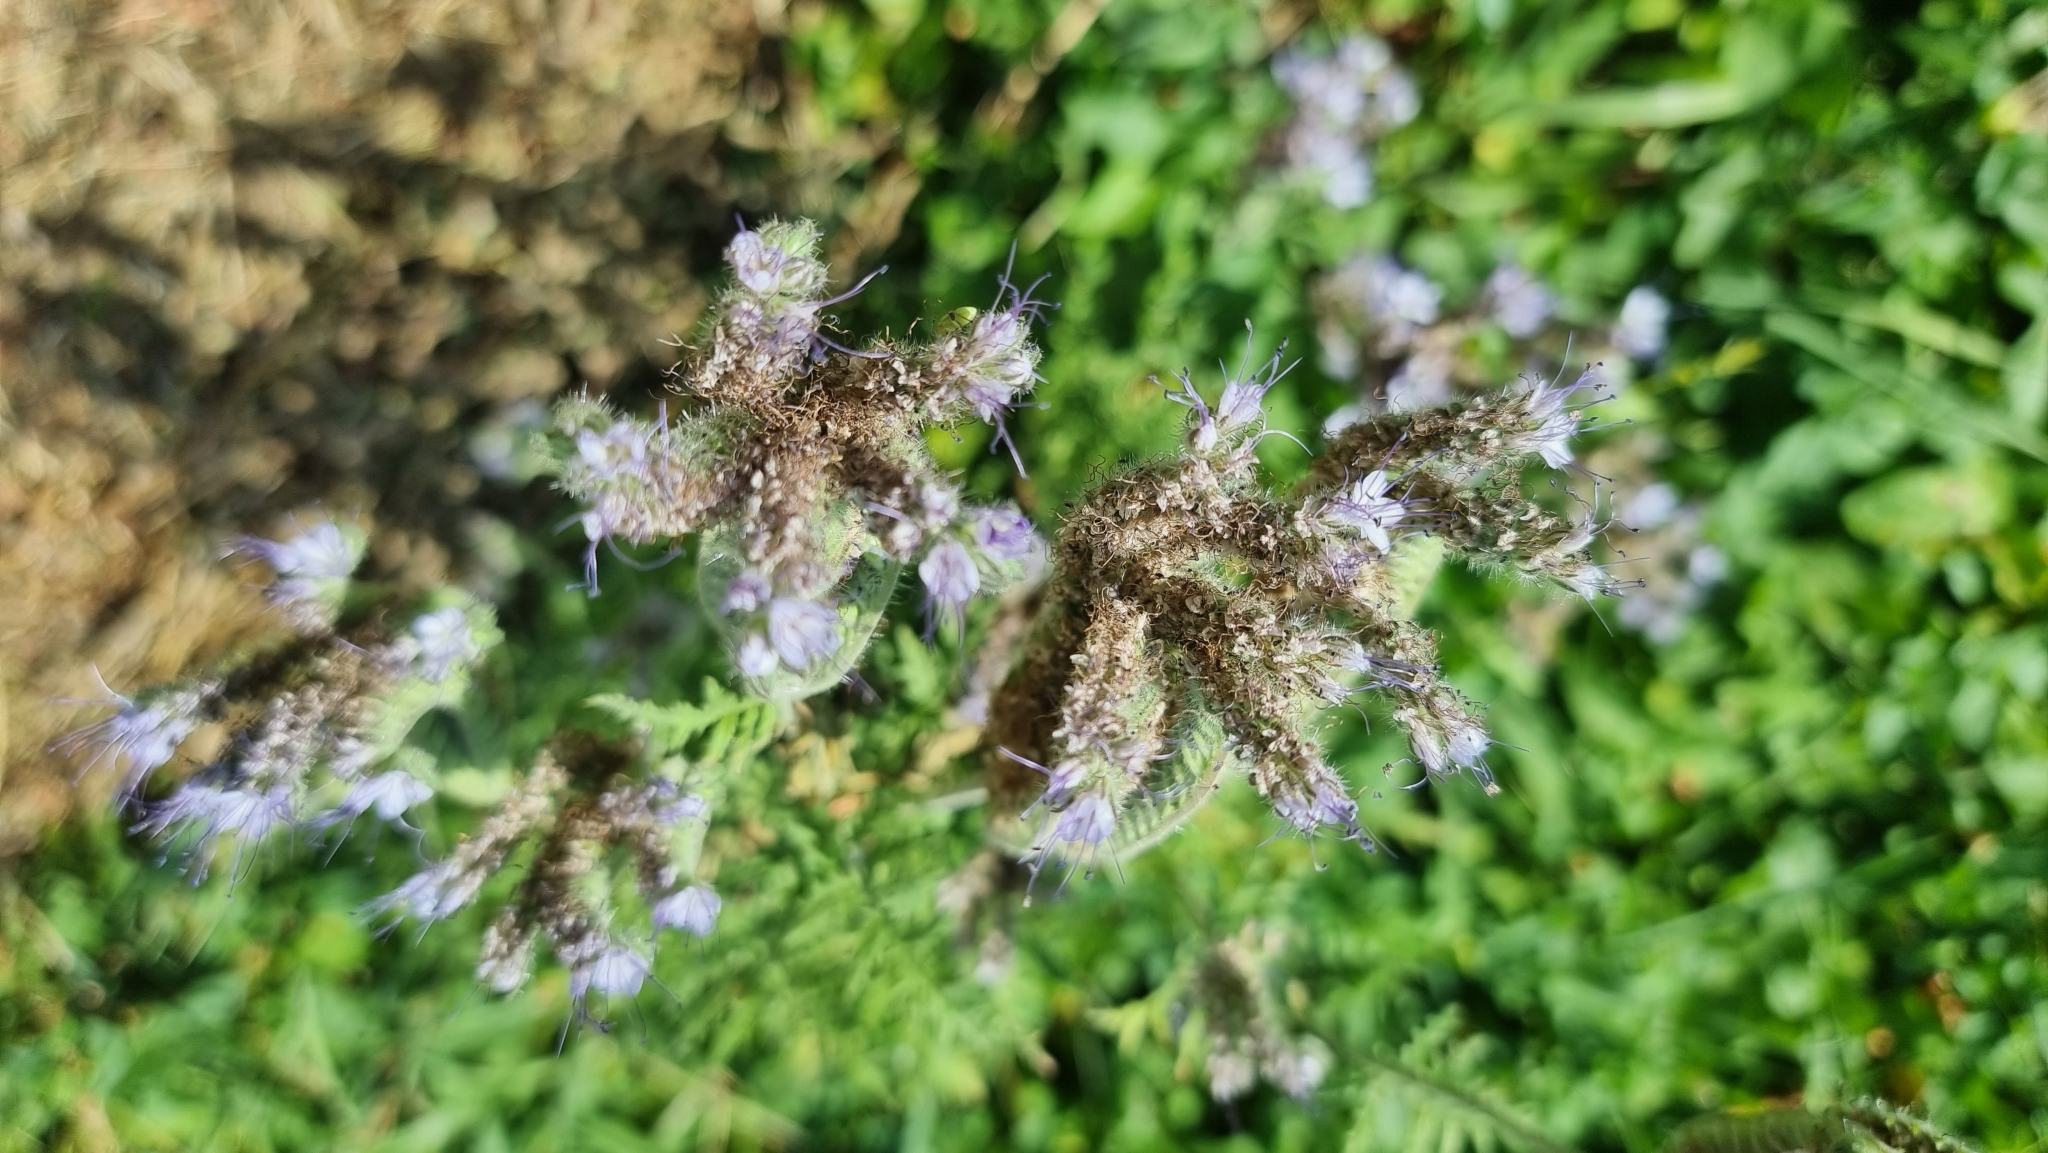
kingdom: Plantae
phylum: Tracheophyta
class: Magnoliopsida
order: Boraginales
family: Hydrophyllaceae
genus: Phacelia
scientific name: Phacelia tanacetifolia
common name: Phacelia
